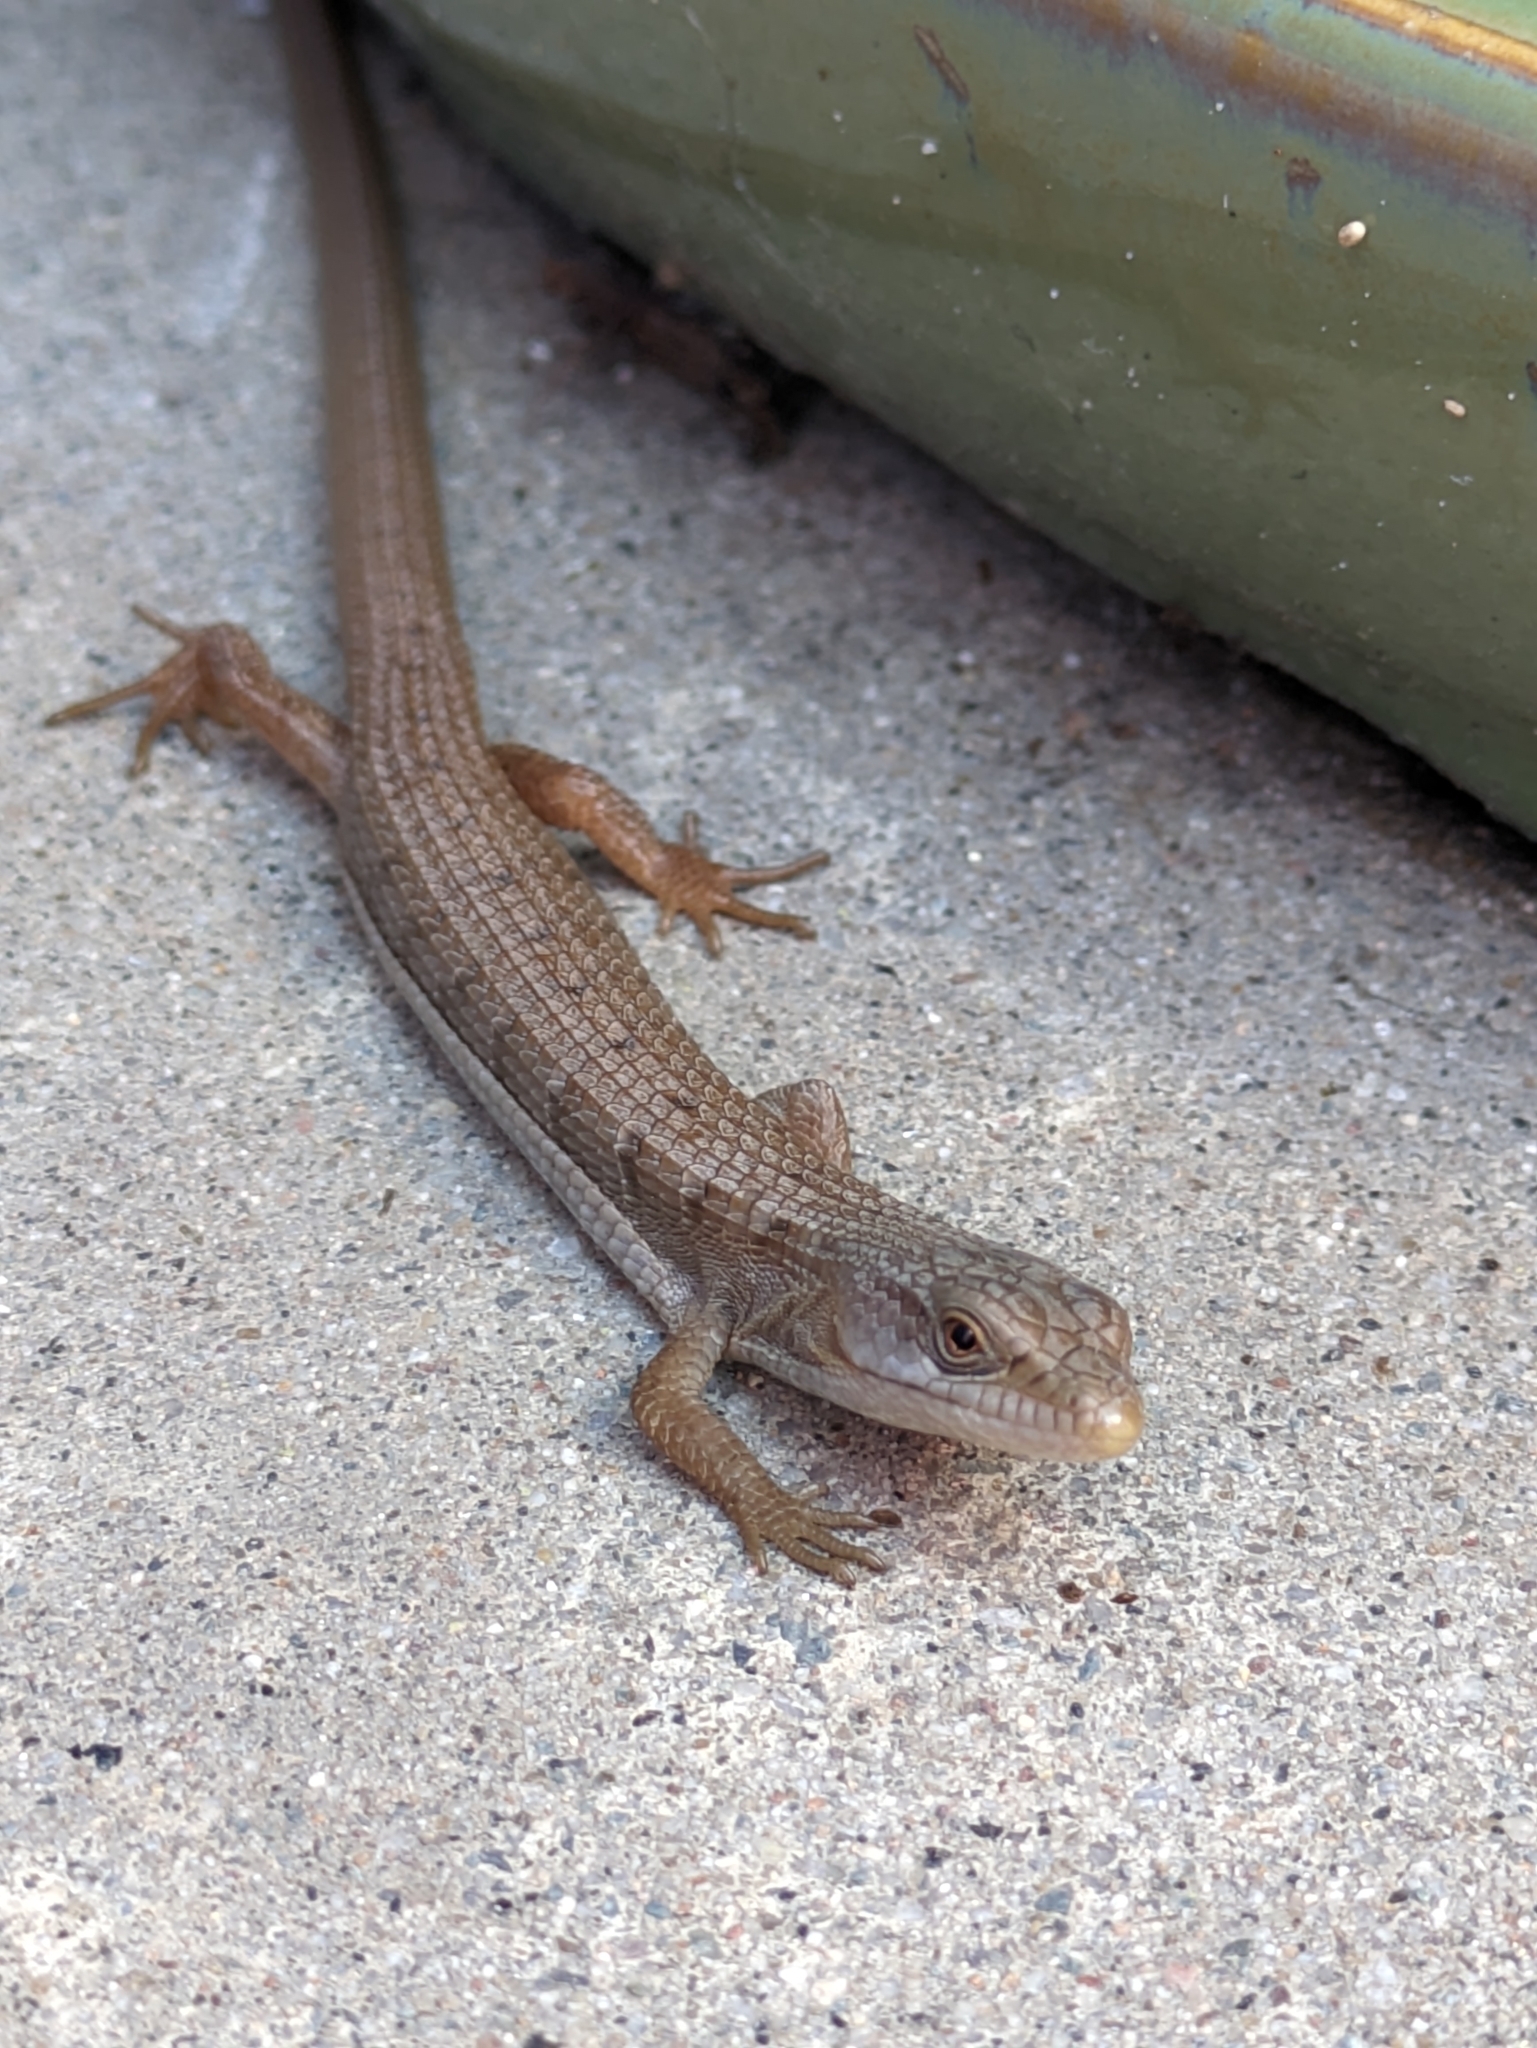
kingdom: Animalia
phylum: Chordata
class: Squamata
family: Anguidae
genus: Elgaria
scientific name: Elgaria multicarinata
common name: Southern alligator lizard
